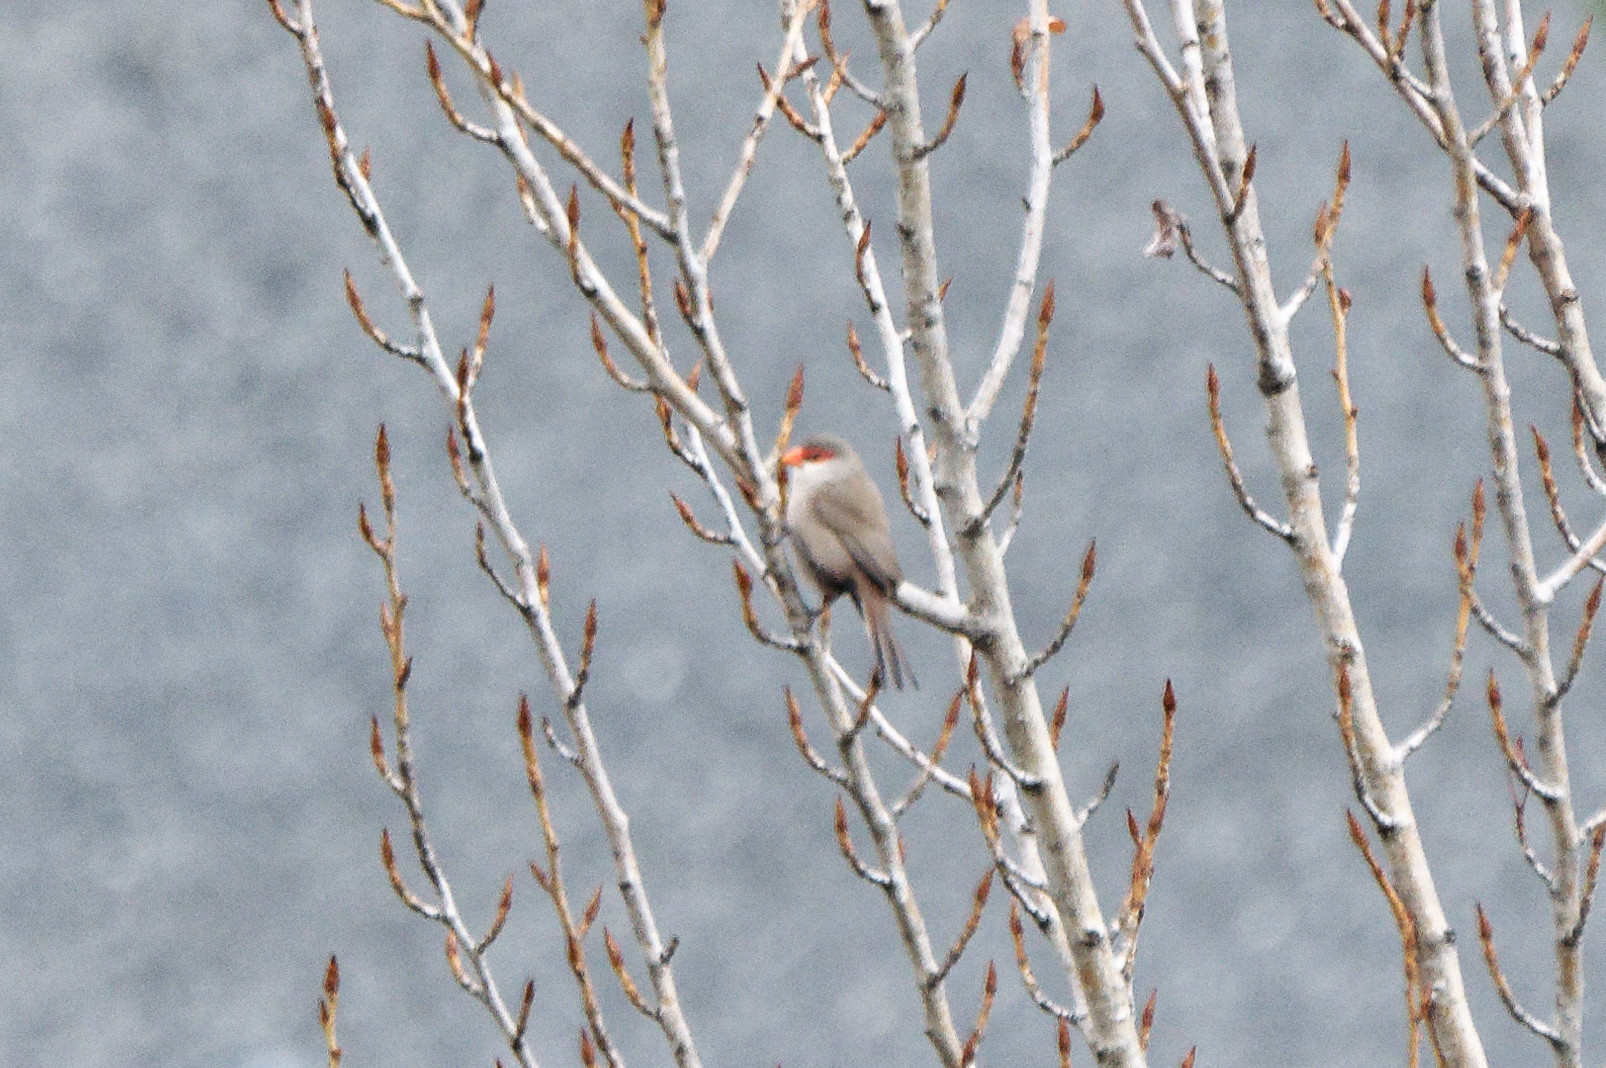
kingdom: Animalia
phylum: Chordata
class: Aves
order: Passeriformes
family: Estrildidae
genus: Estrilda
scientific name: Estrilda astrild
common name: Common waxbill
